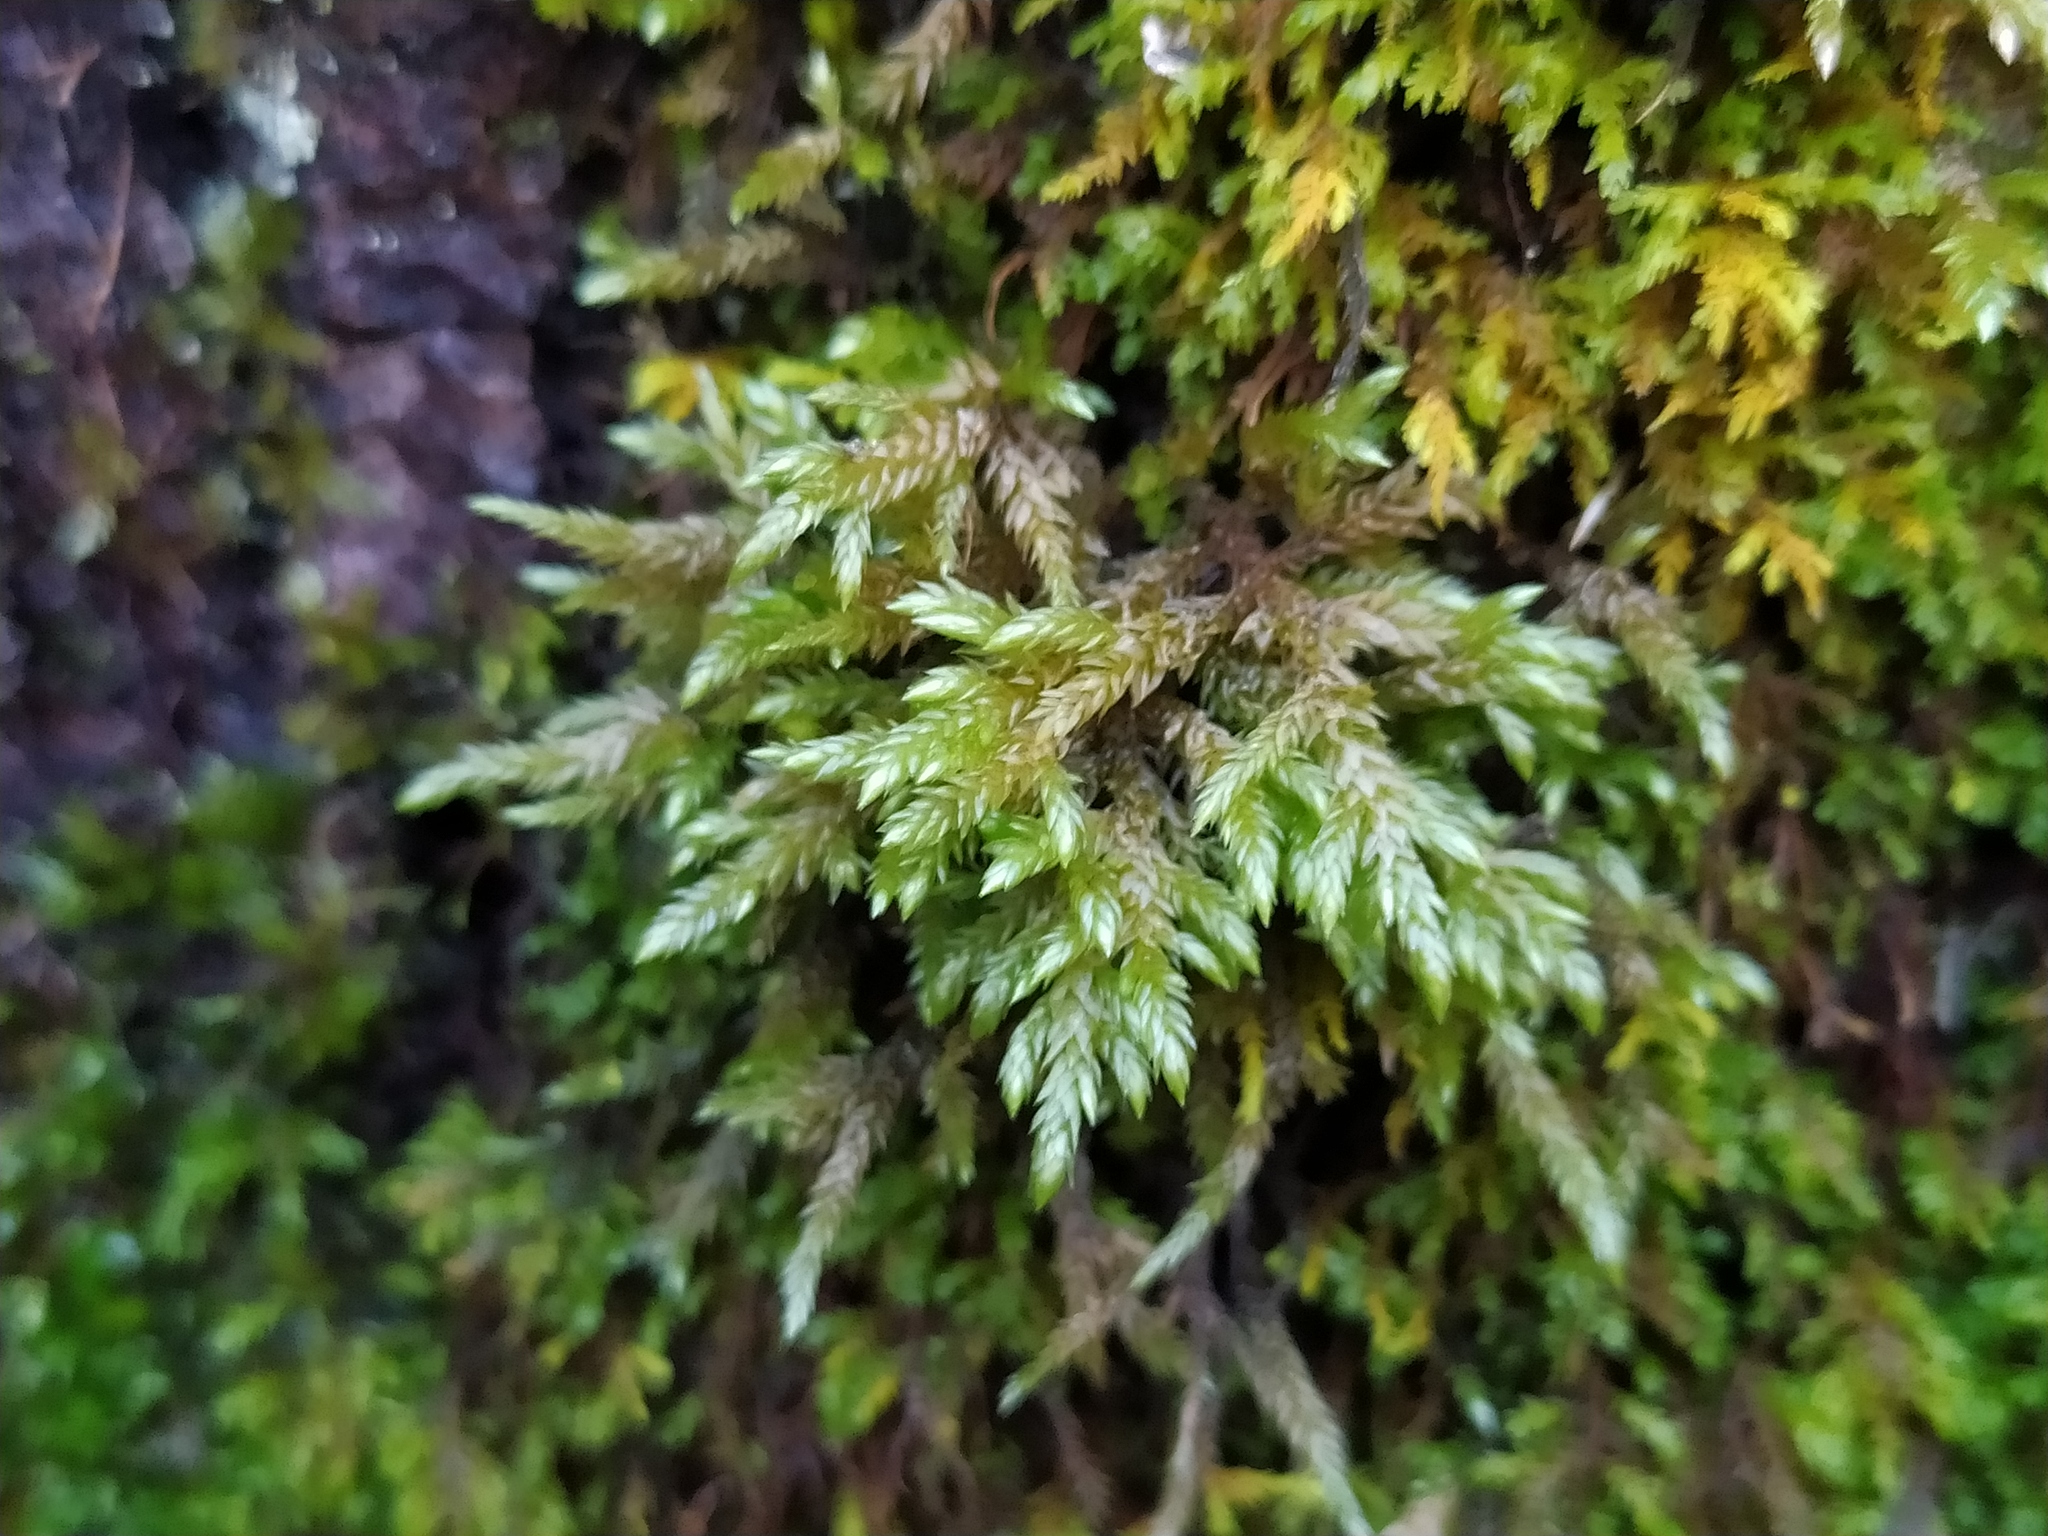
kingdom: Plantae
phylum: Bryophyta
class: Bryopsida
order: Hypnales
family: Lembophyllaceae
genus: Isothecium
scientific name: Isothecium alopecuroides
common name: Larger mouse-tail moss
